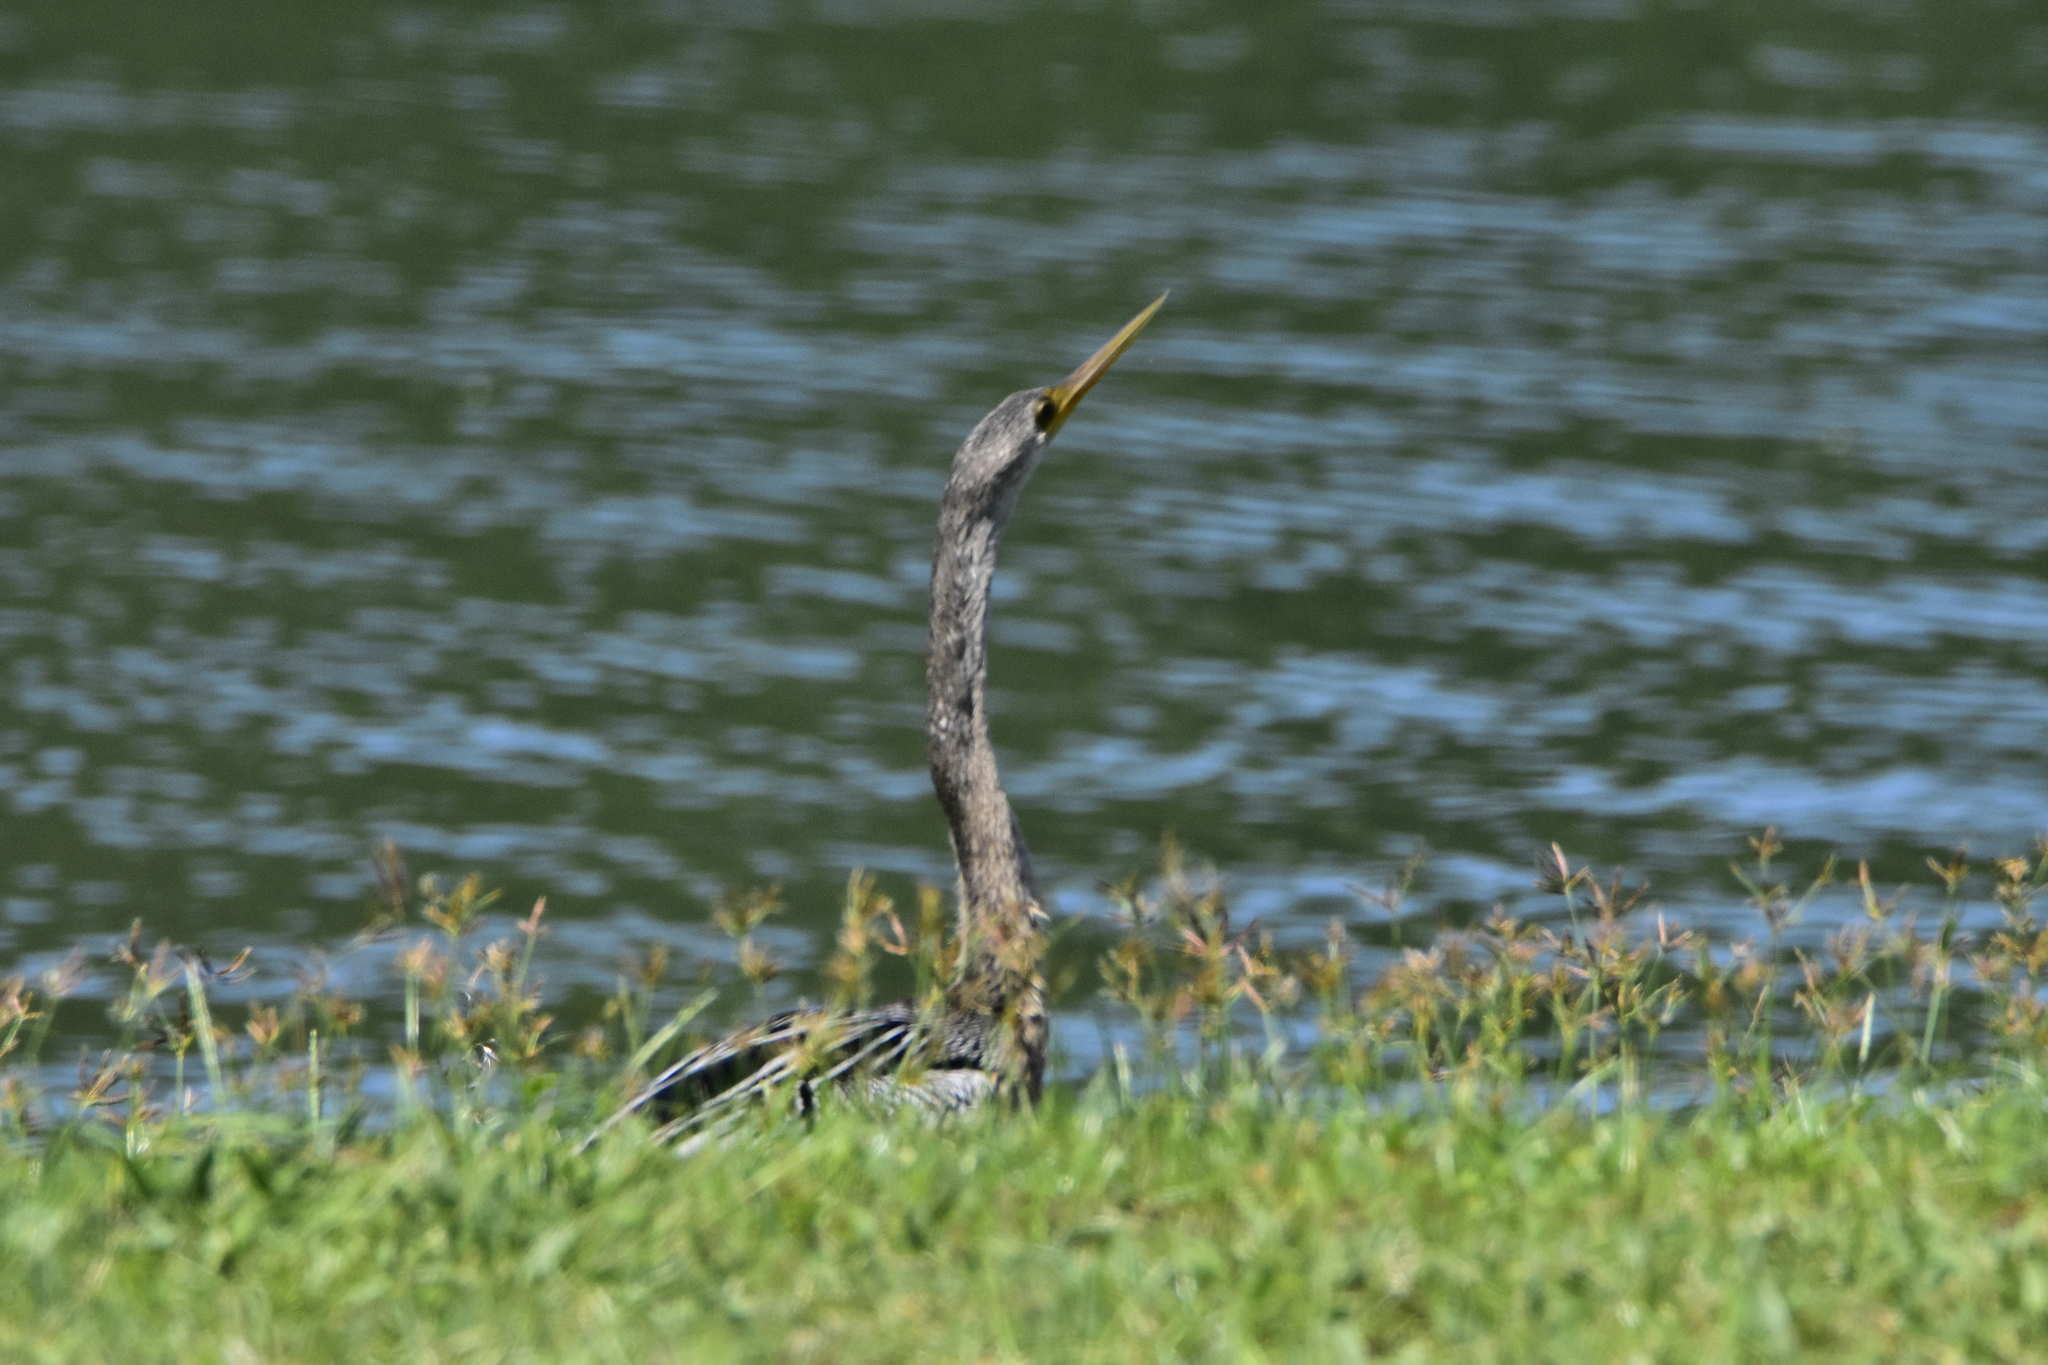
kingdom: Animalia
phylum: Chordata
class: Aves
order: Suliformes
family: Anhingidae
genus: Anhinga
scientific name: Anhinga anhinga
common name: Anhinga
